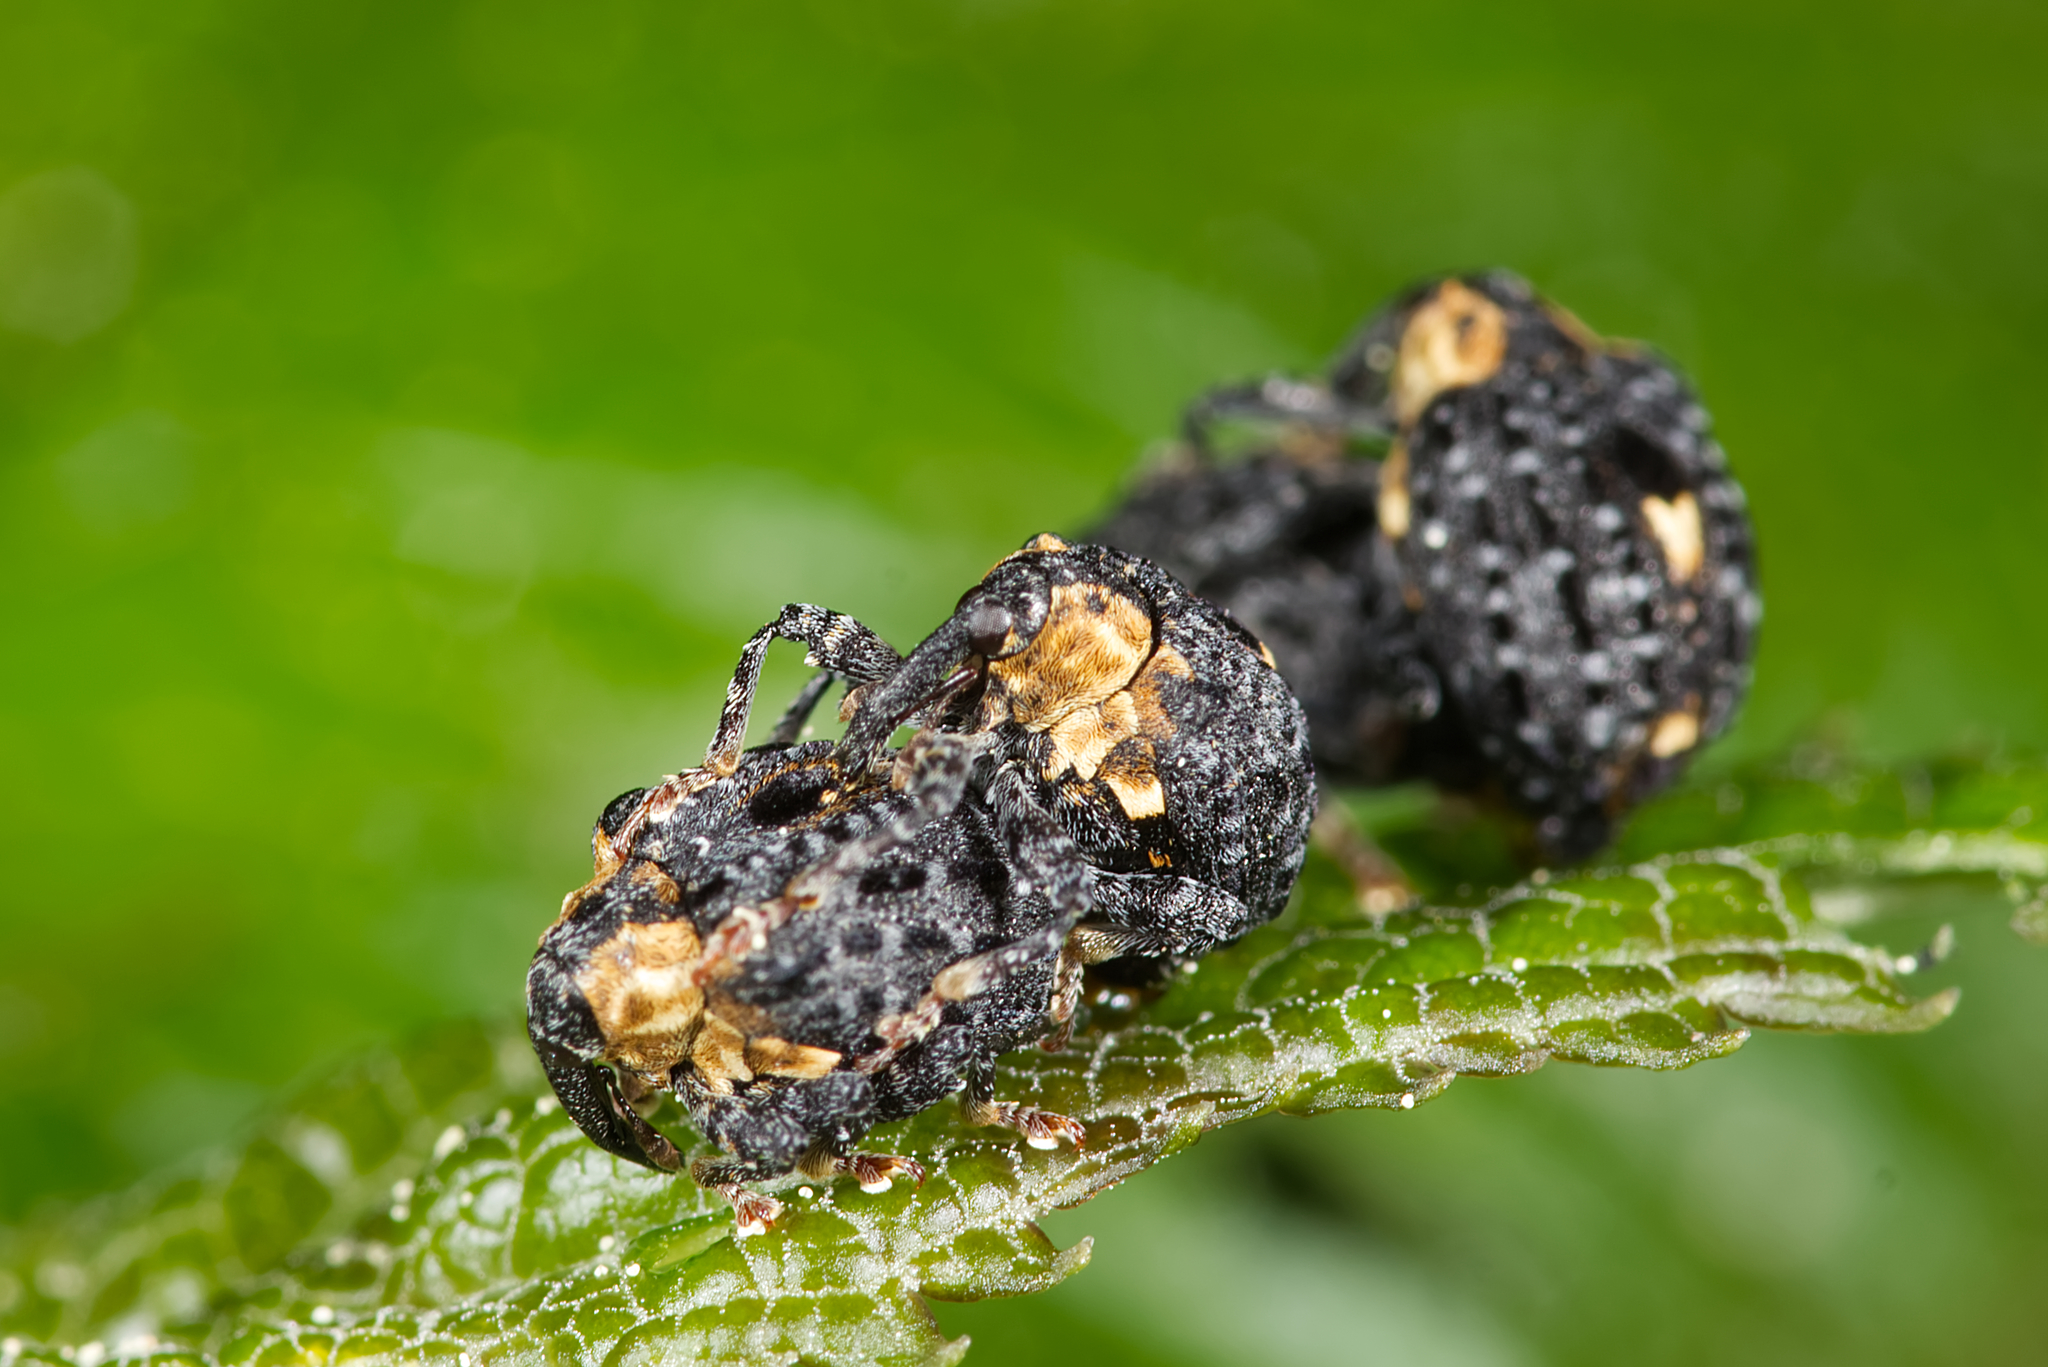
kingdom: Animalia
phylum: Arthropoda
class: Insecta
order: Coleoptera
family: Curculionidae
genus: Cionus
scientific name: Cionus tuberculosus
